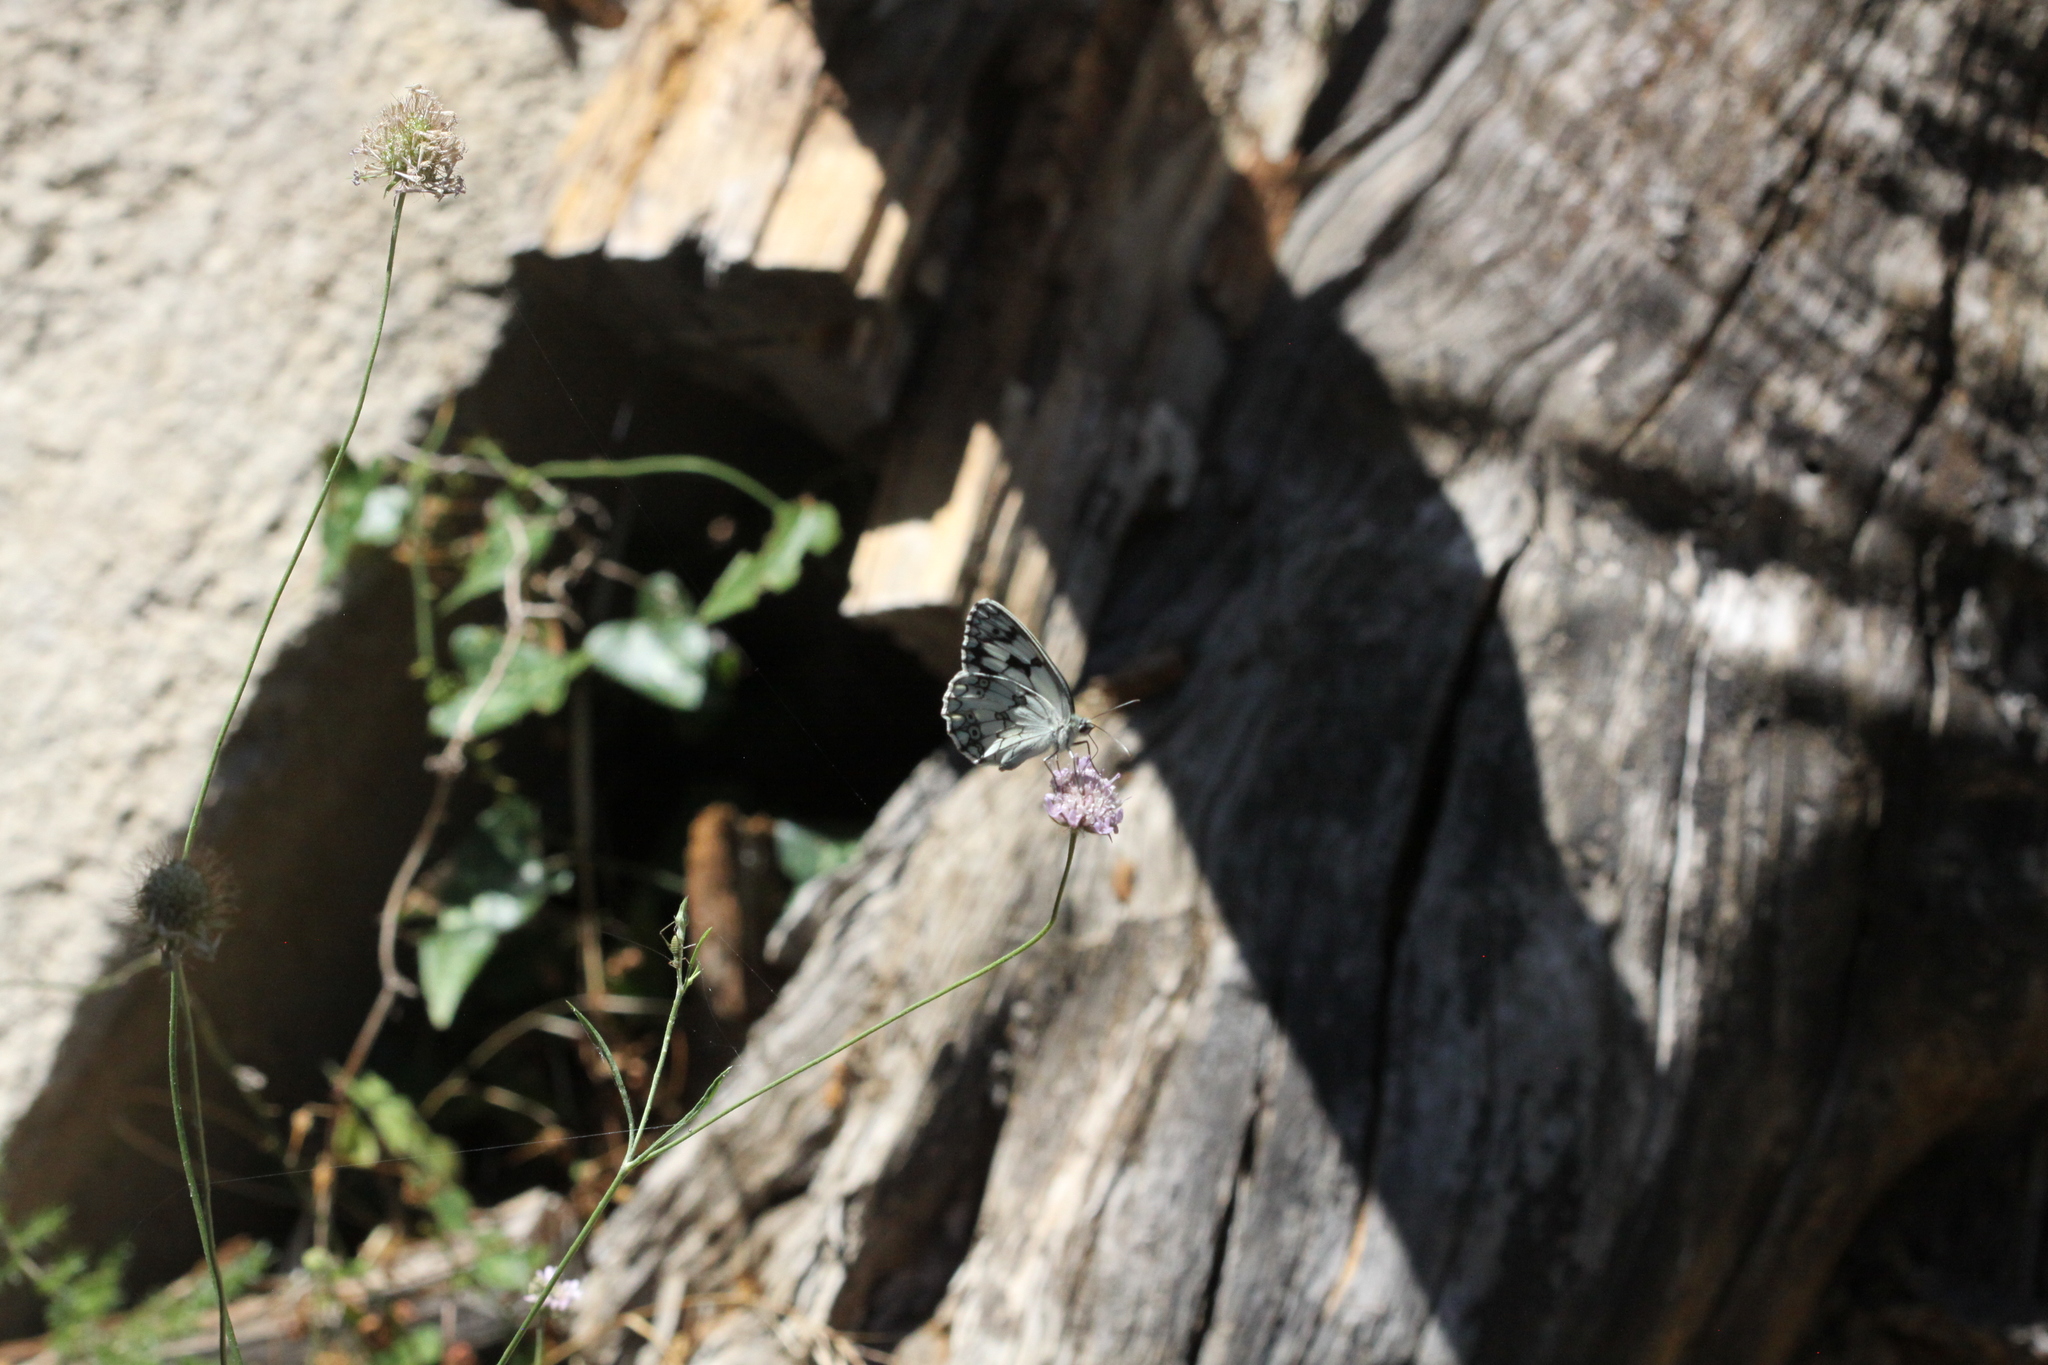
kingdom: Animalia
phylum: Arthropoda
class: Insecta
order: Lepidoptera
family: Nymphalidae
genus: Melanargia
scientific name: Melanargia lachesis
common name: Iberian marbled white
